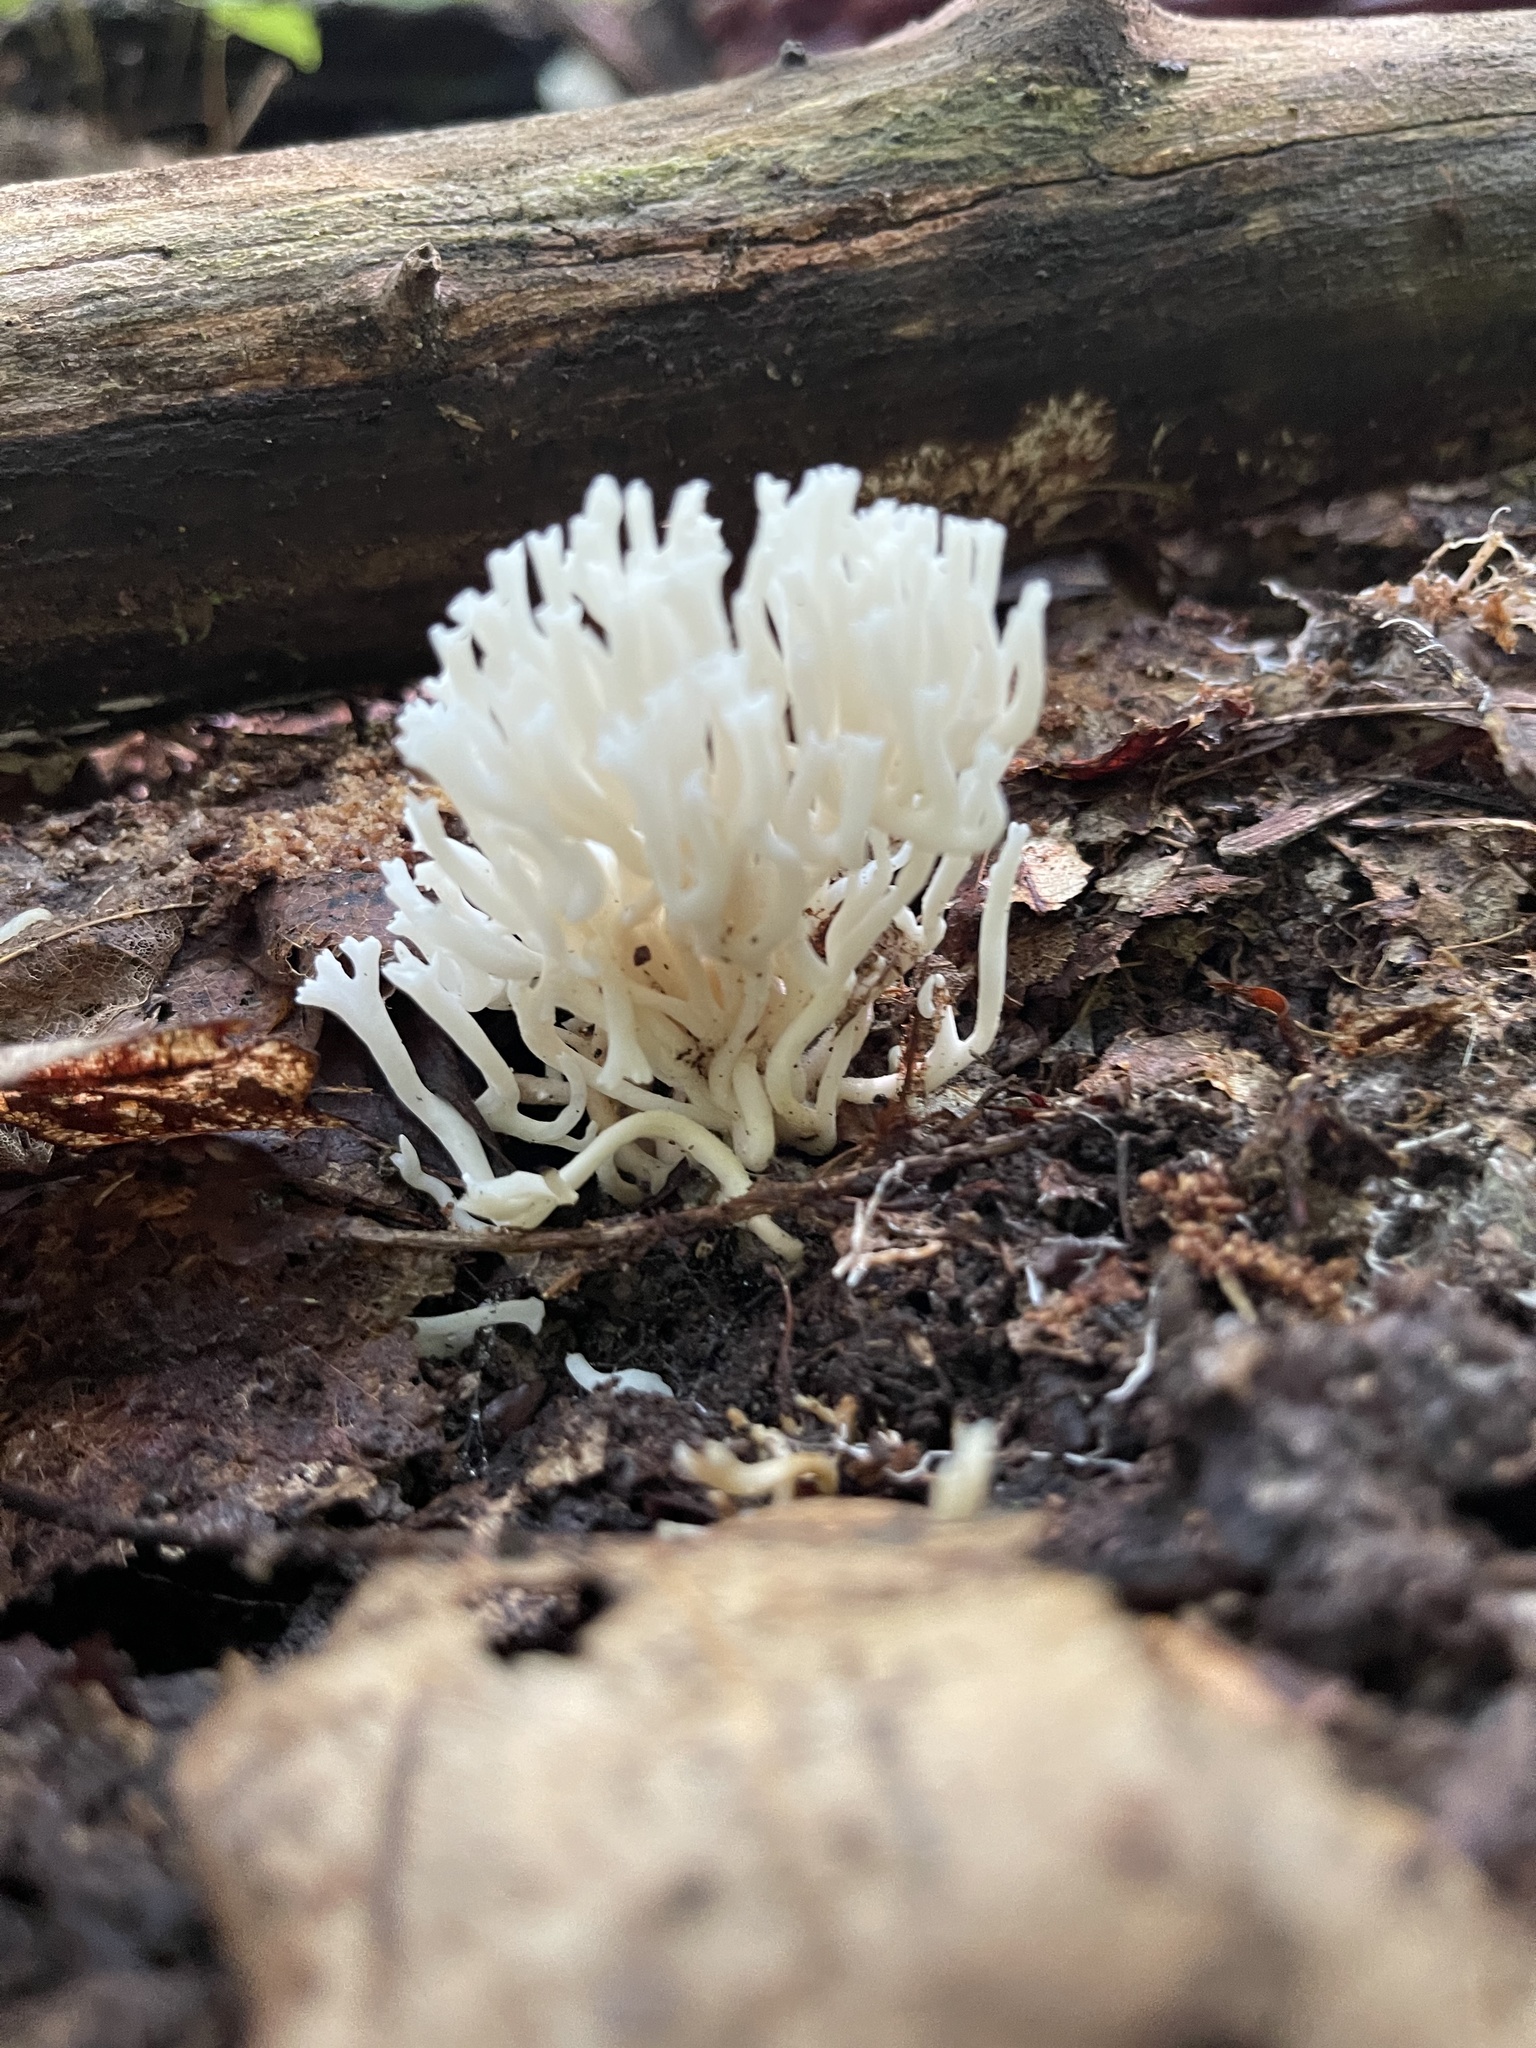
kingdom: Fungi
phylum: Basidiomycota
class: Agaricomycetes
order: Agaricales
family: Clavariaceae
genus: Ramariopsis
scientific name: Ramariopsis kunzei
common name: Ivory coral
